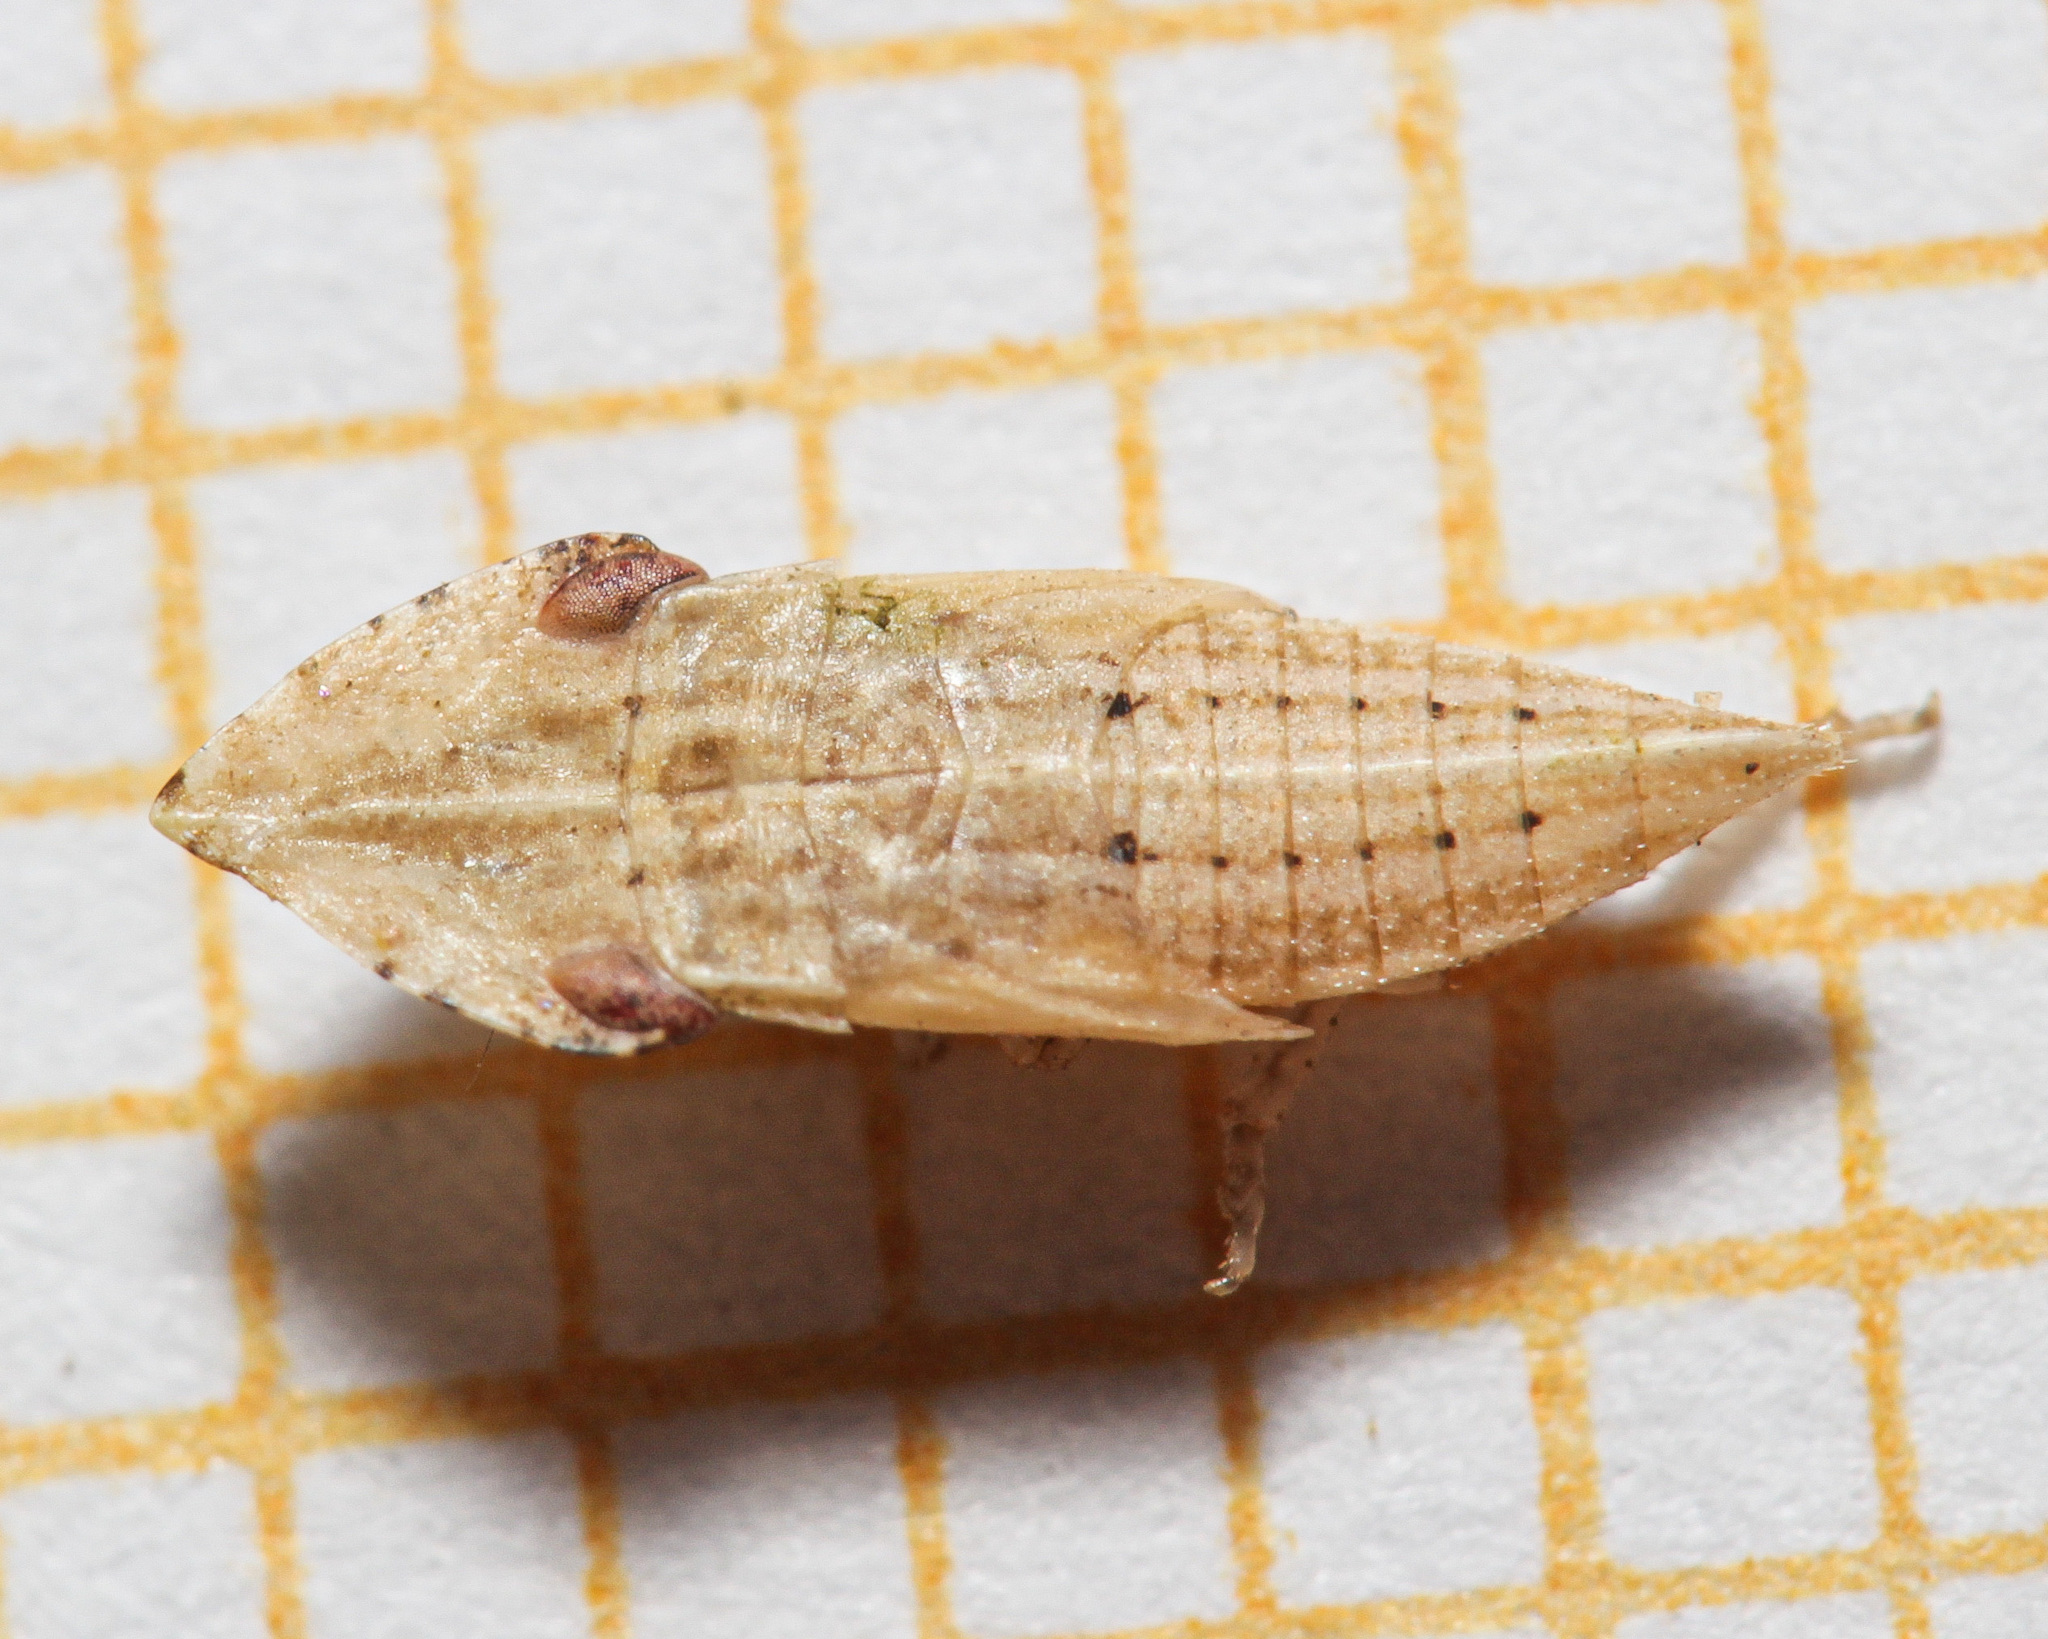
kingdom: Animalia
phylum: Arthropoda
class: Insecta
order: Hemiptera
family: Cicadellidae
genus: Eupelix
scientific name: Eupelix cuspidata
